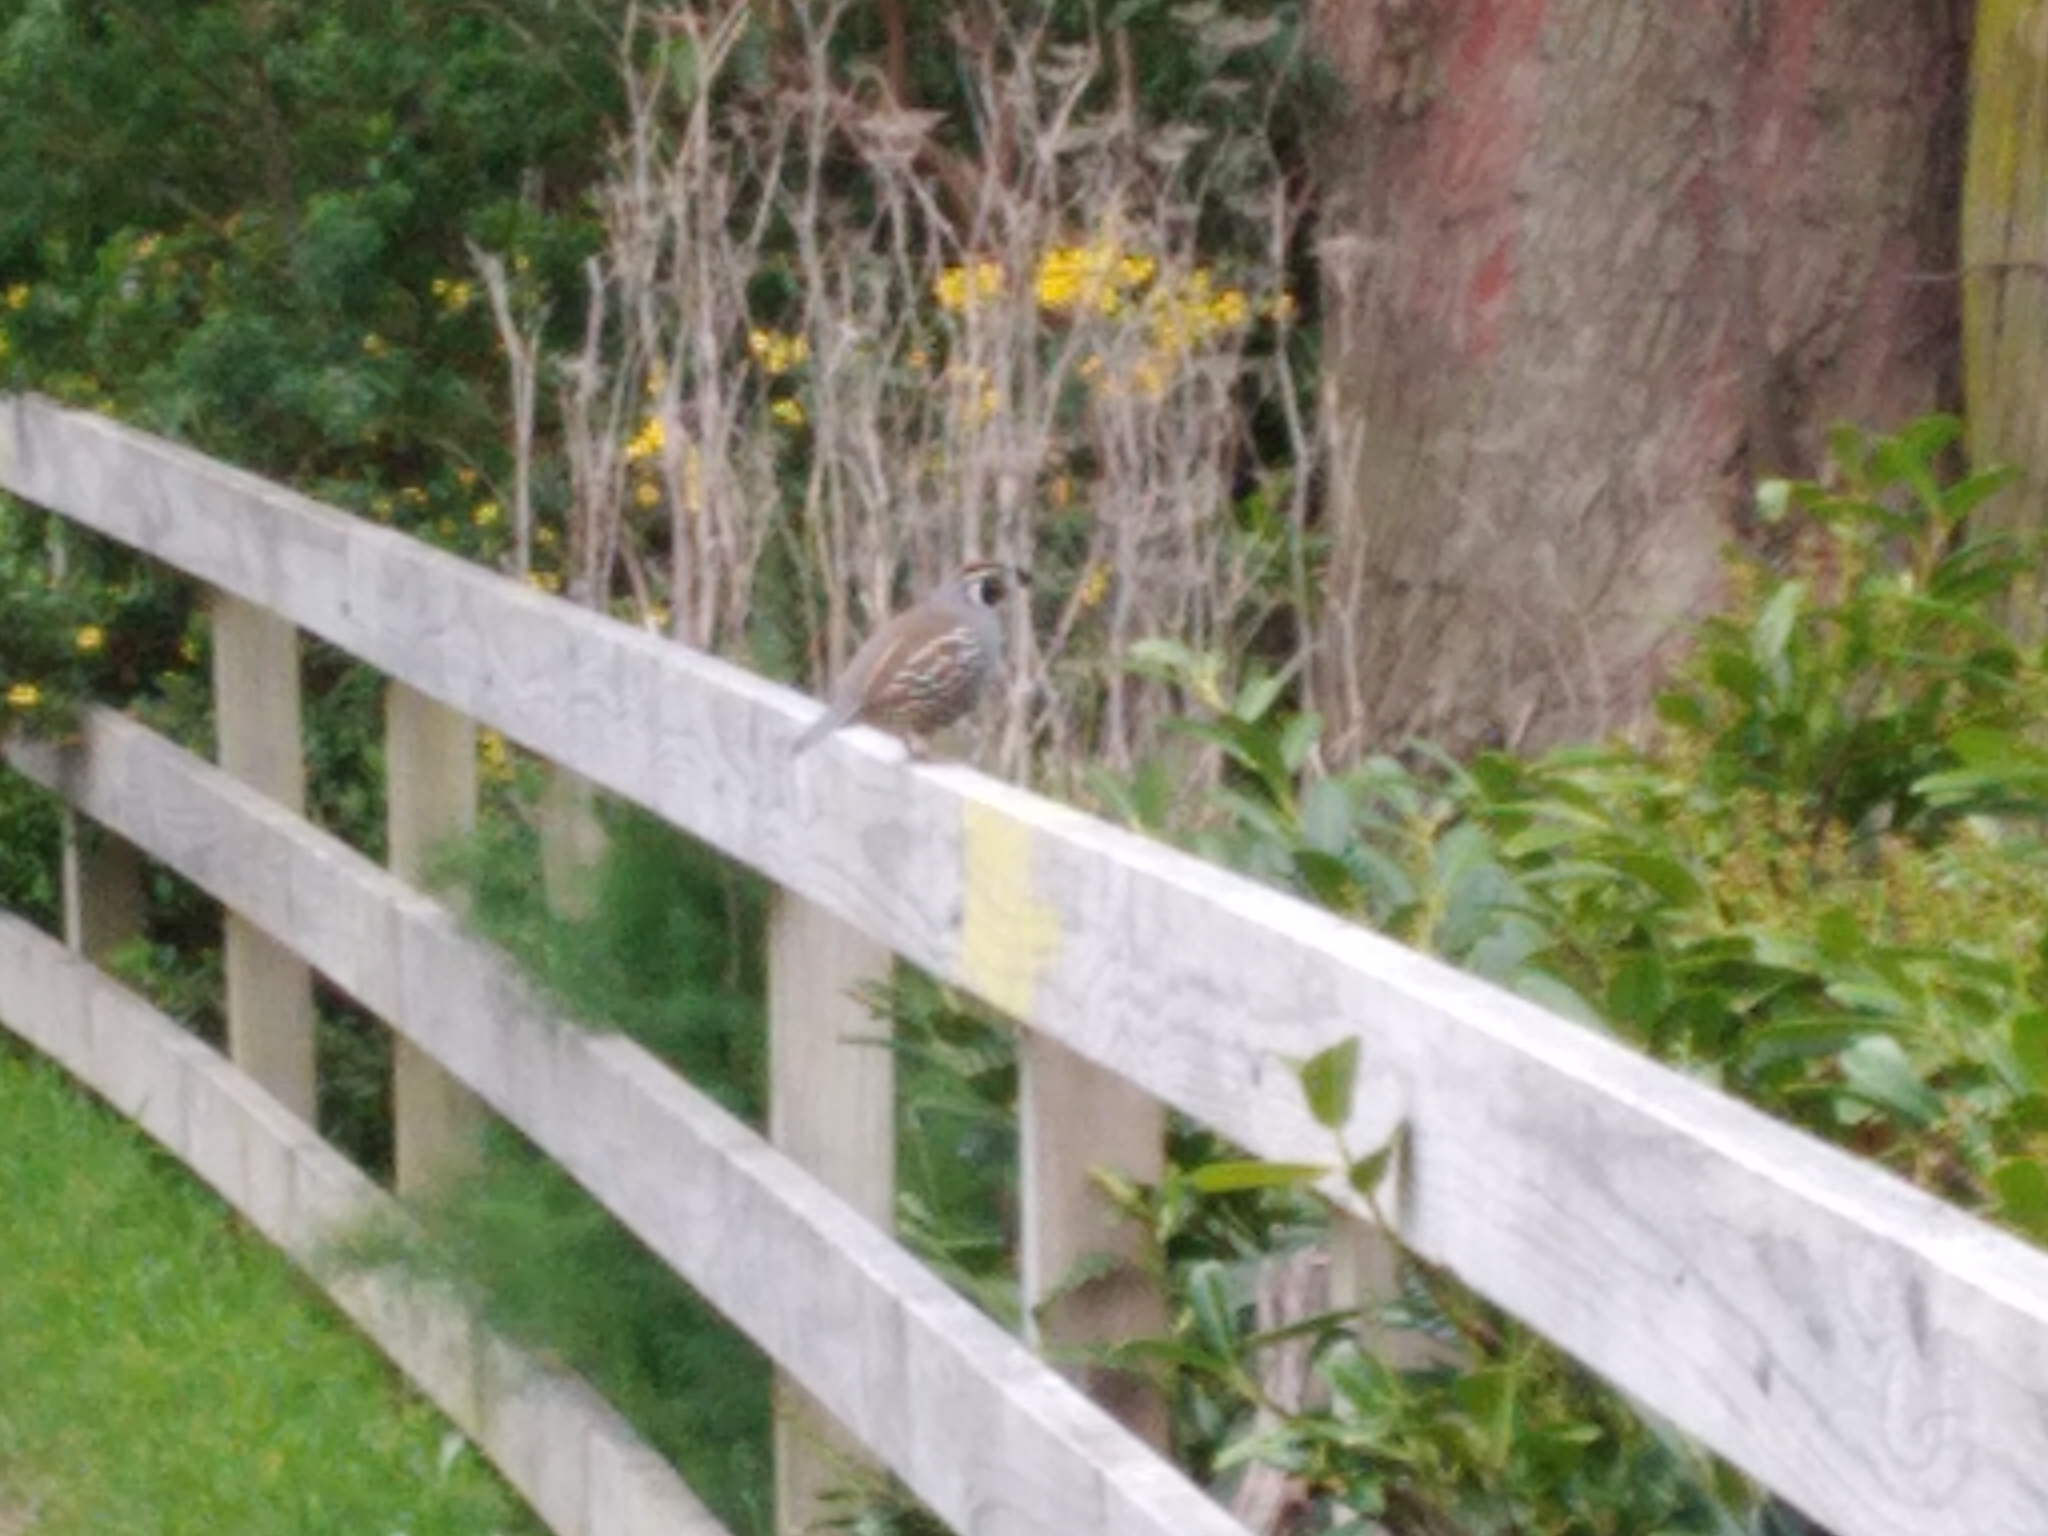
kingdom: Animalia
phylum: Chordata
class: Aves
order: Galliformes
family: Odontophoridae
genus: Callipepla
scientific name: Callipepla californica
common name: California quail
